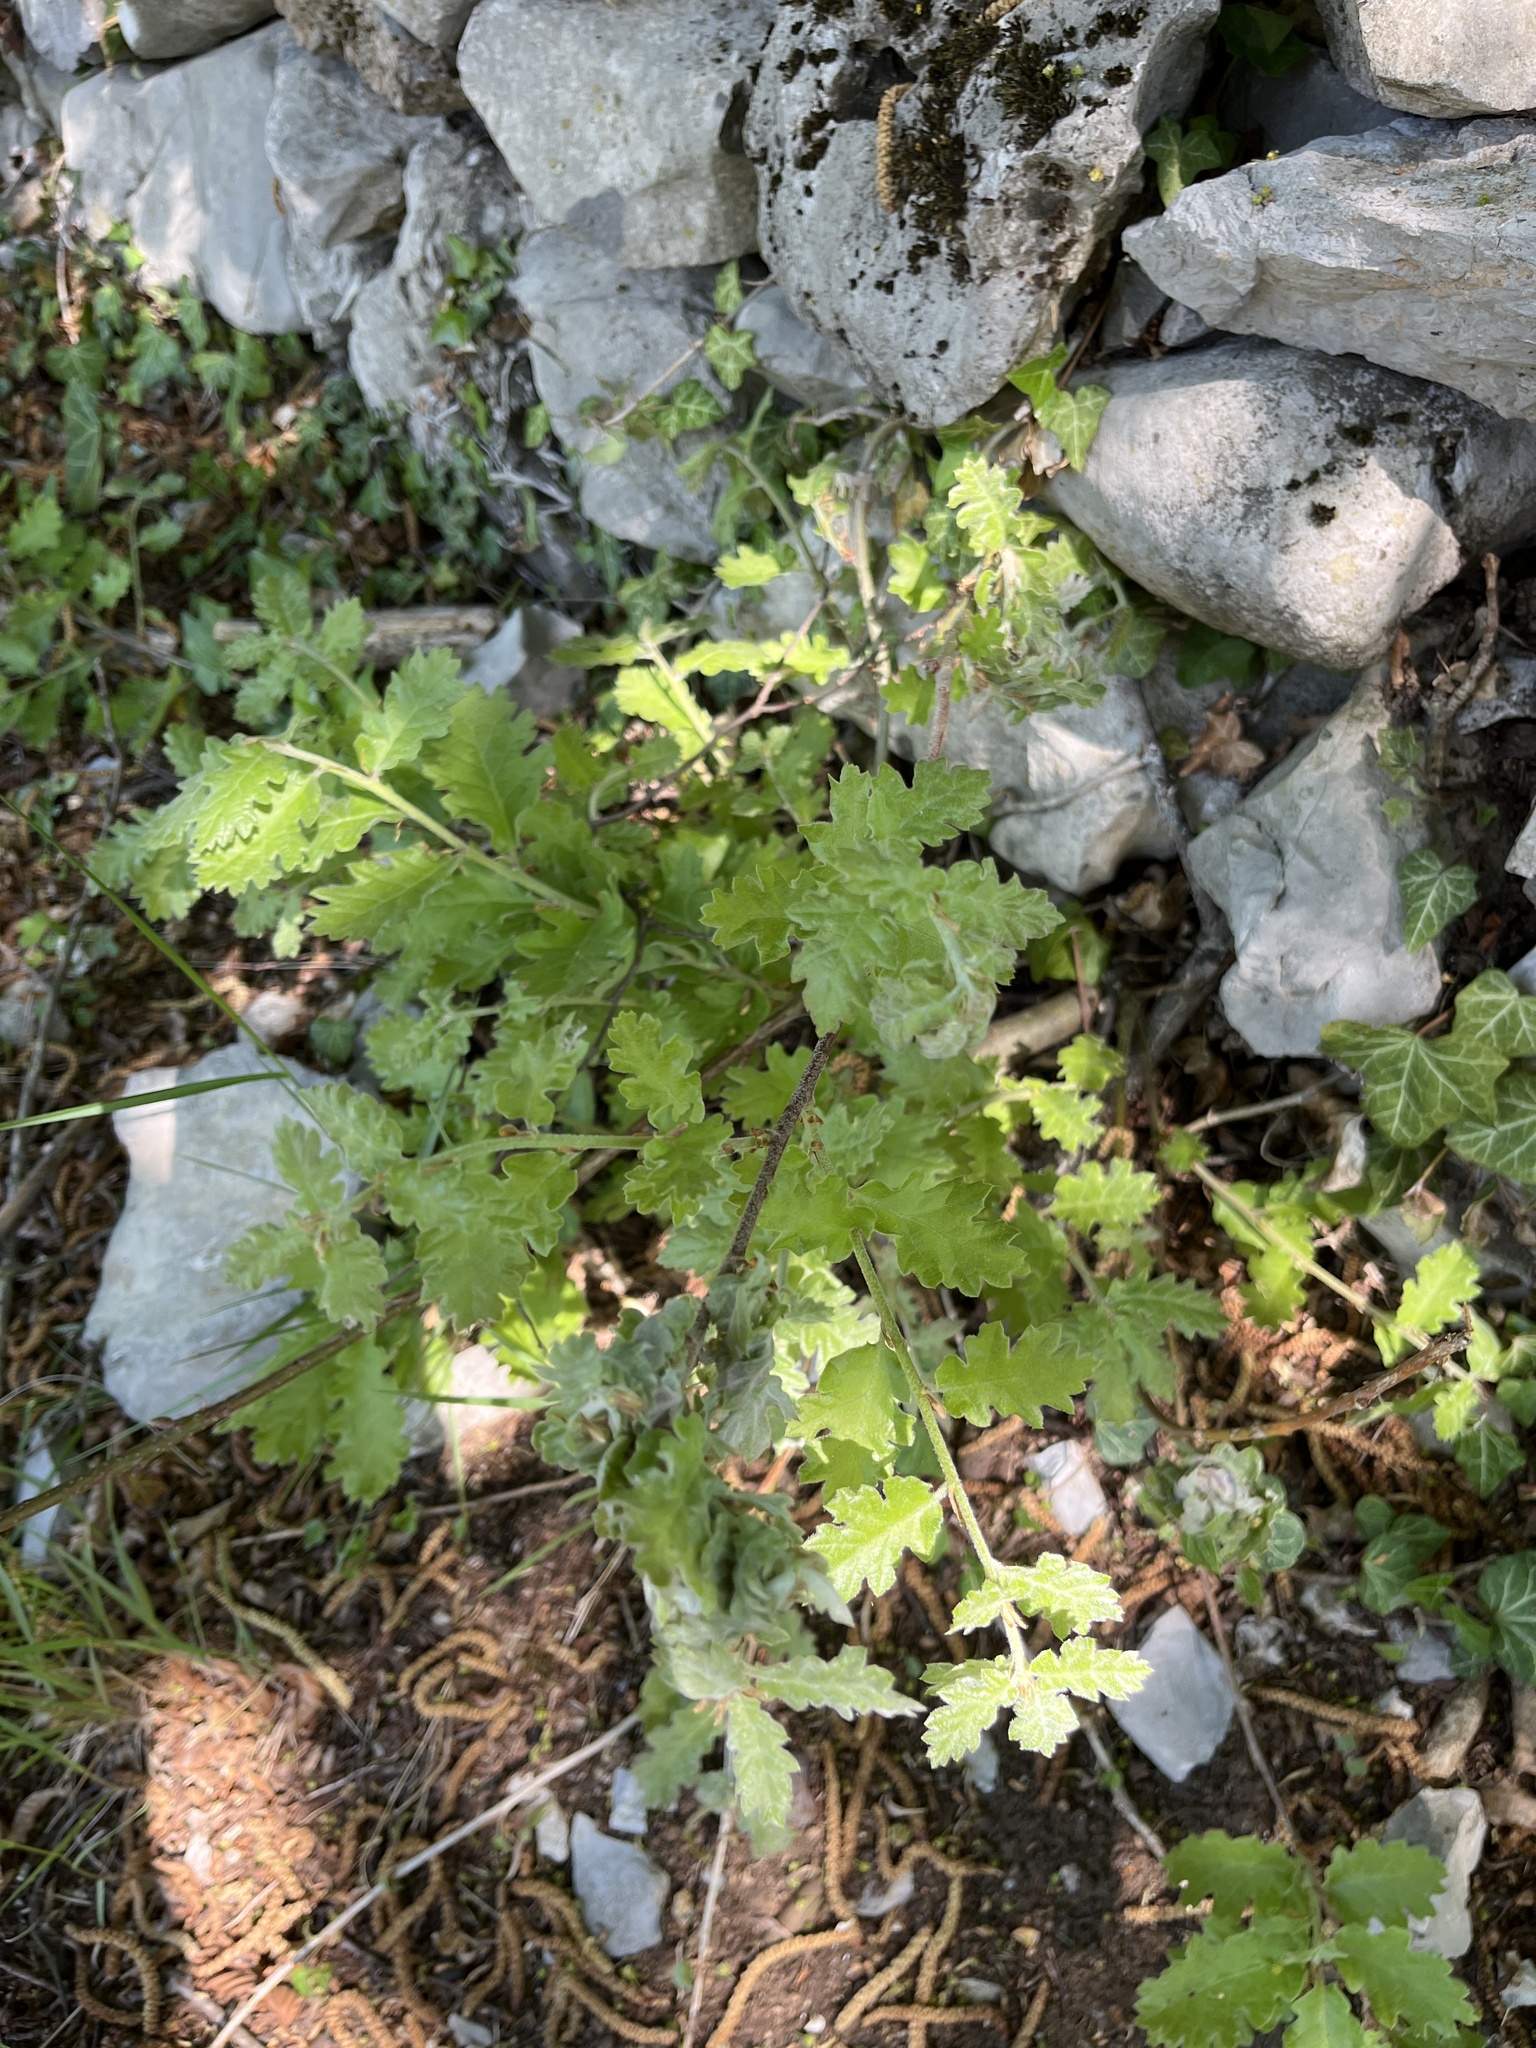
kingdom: Plantae
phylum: Tracheophyta
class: Magnoliopsida
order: Fagales
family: Fagaceae
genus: Quercus
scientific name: Quercus pubescens
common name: Downy oak
